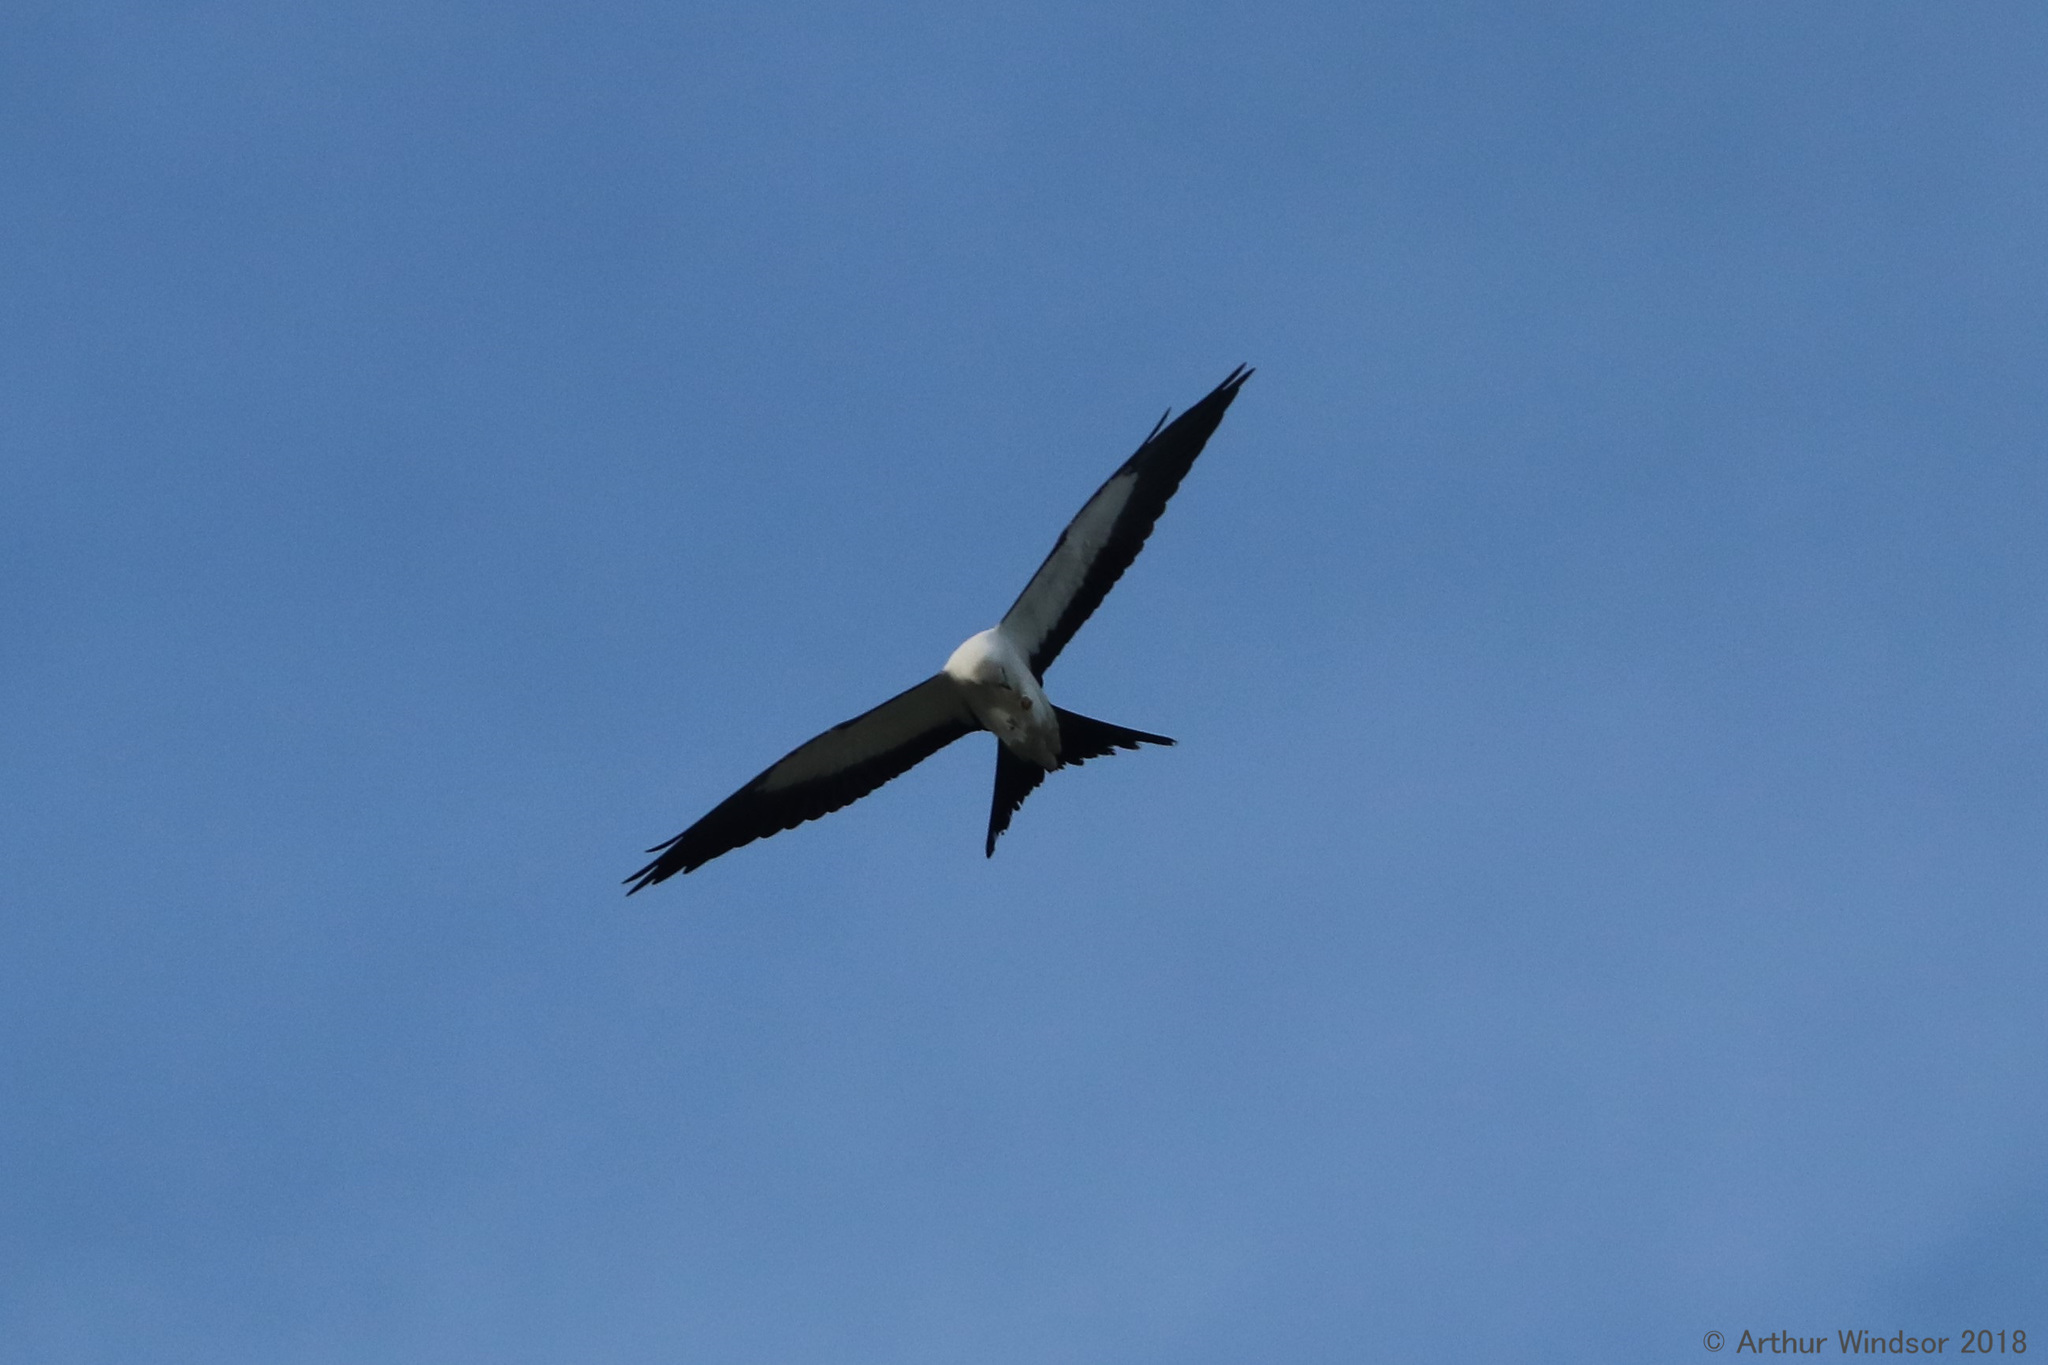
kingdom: Animalia
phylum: Chordata
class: Aves
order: Accipitriformes
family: Accipitridae
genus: Elanoides
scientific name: Elanoides forficatus
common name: Swallow-tailed kite
